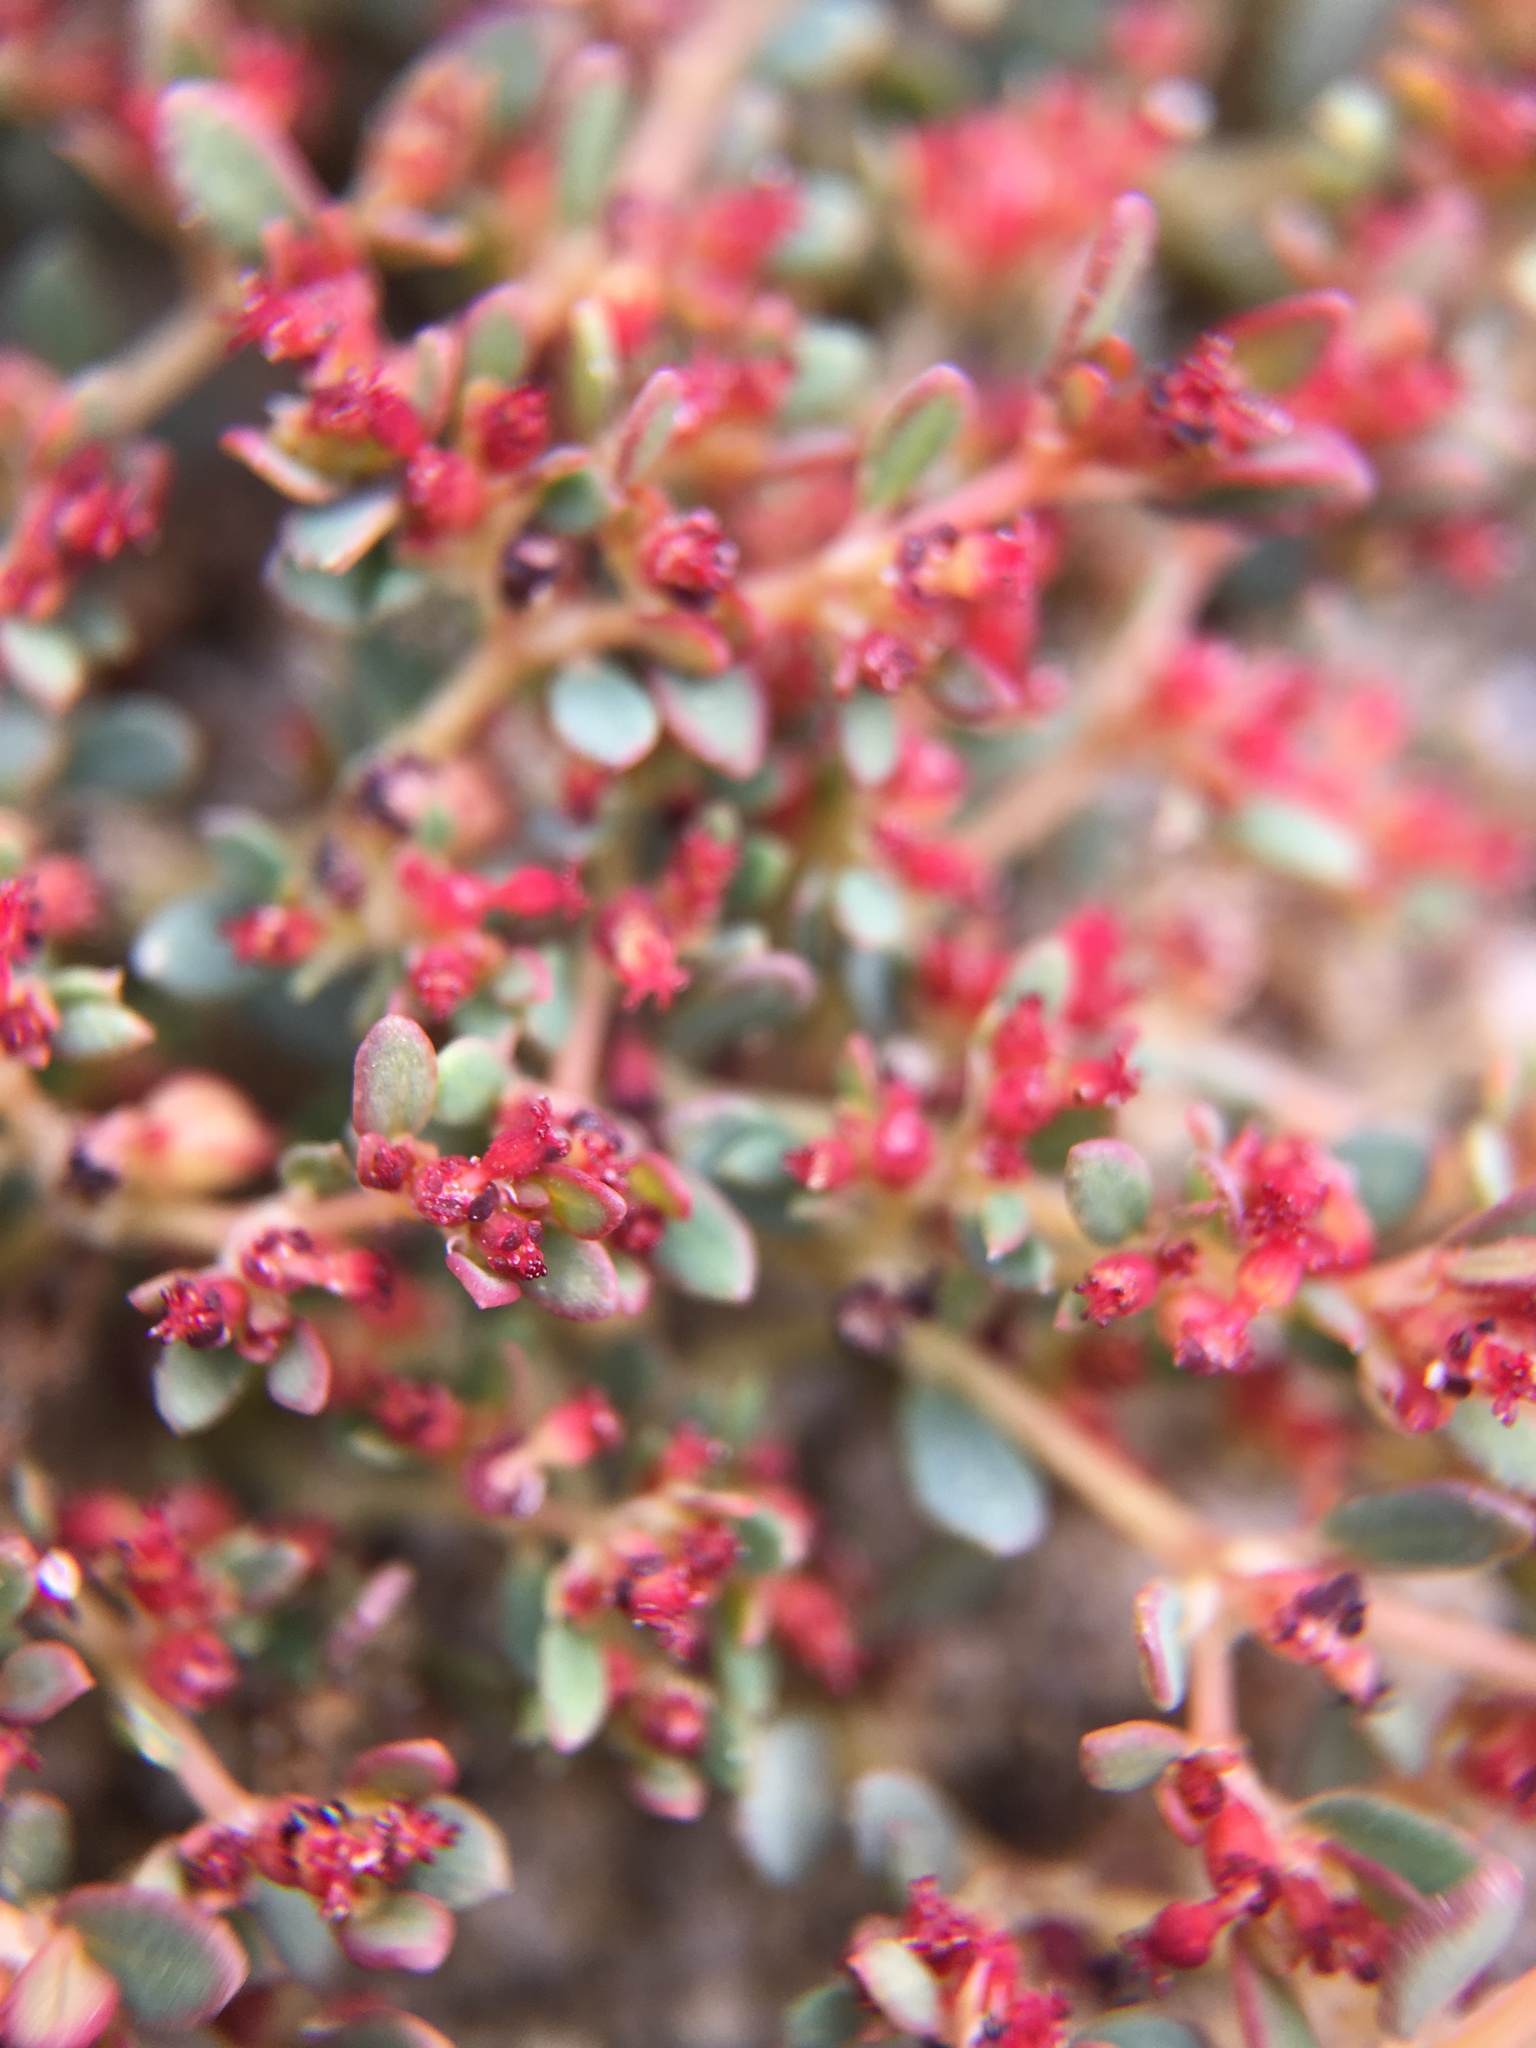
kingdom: Plantae
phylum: Tracheophyta
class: Magnoliopsida
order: Malpighiales
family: Euphorbiaceae
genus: Euphorbia
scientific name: Euphorbia polycarpa
